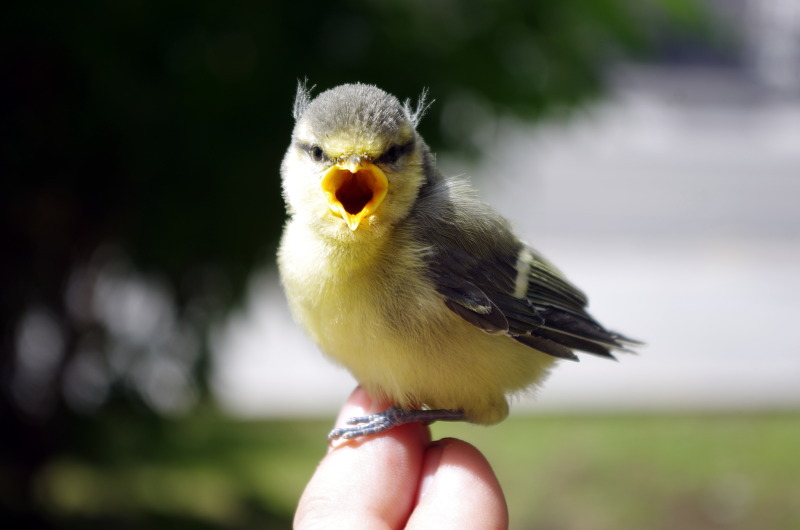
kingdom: Animalia
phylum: Chordata
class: Aves
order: Passeriformes
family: Paridae
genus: Cyanistes
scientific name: Cyanistes caeruleus
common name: Eurasian blue tit
